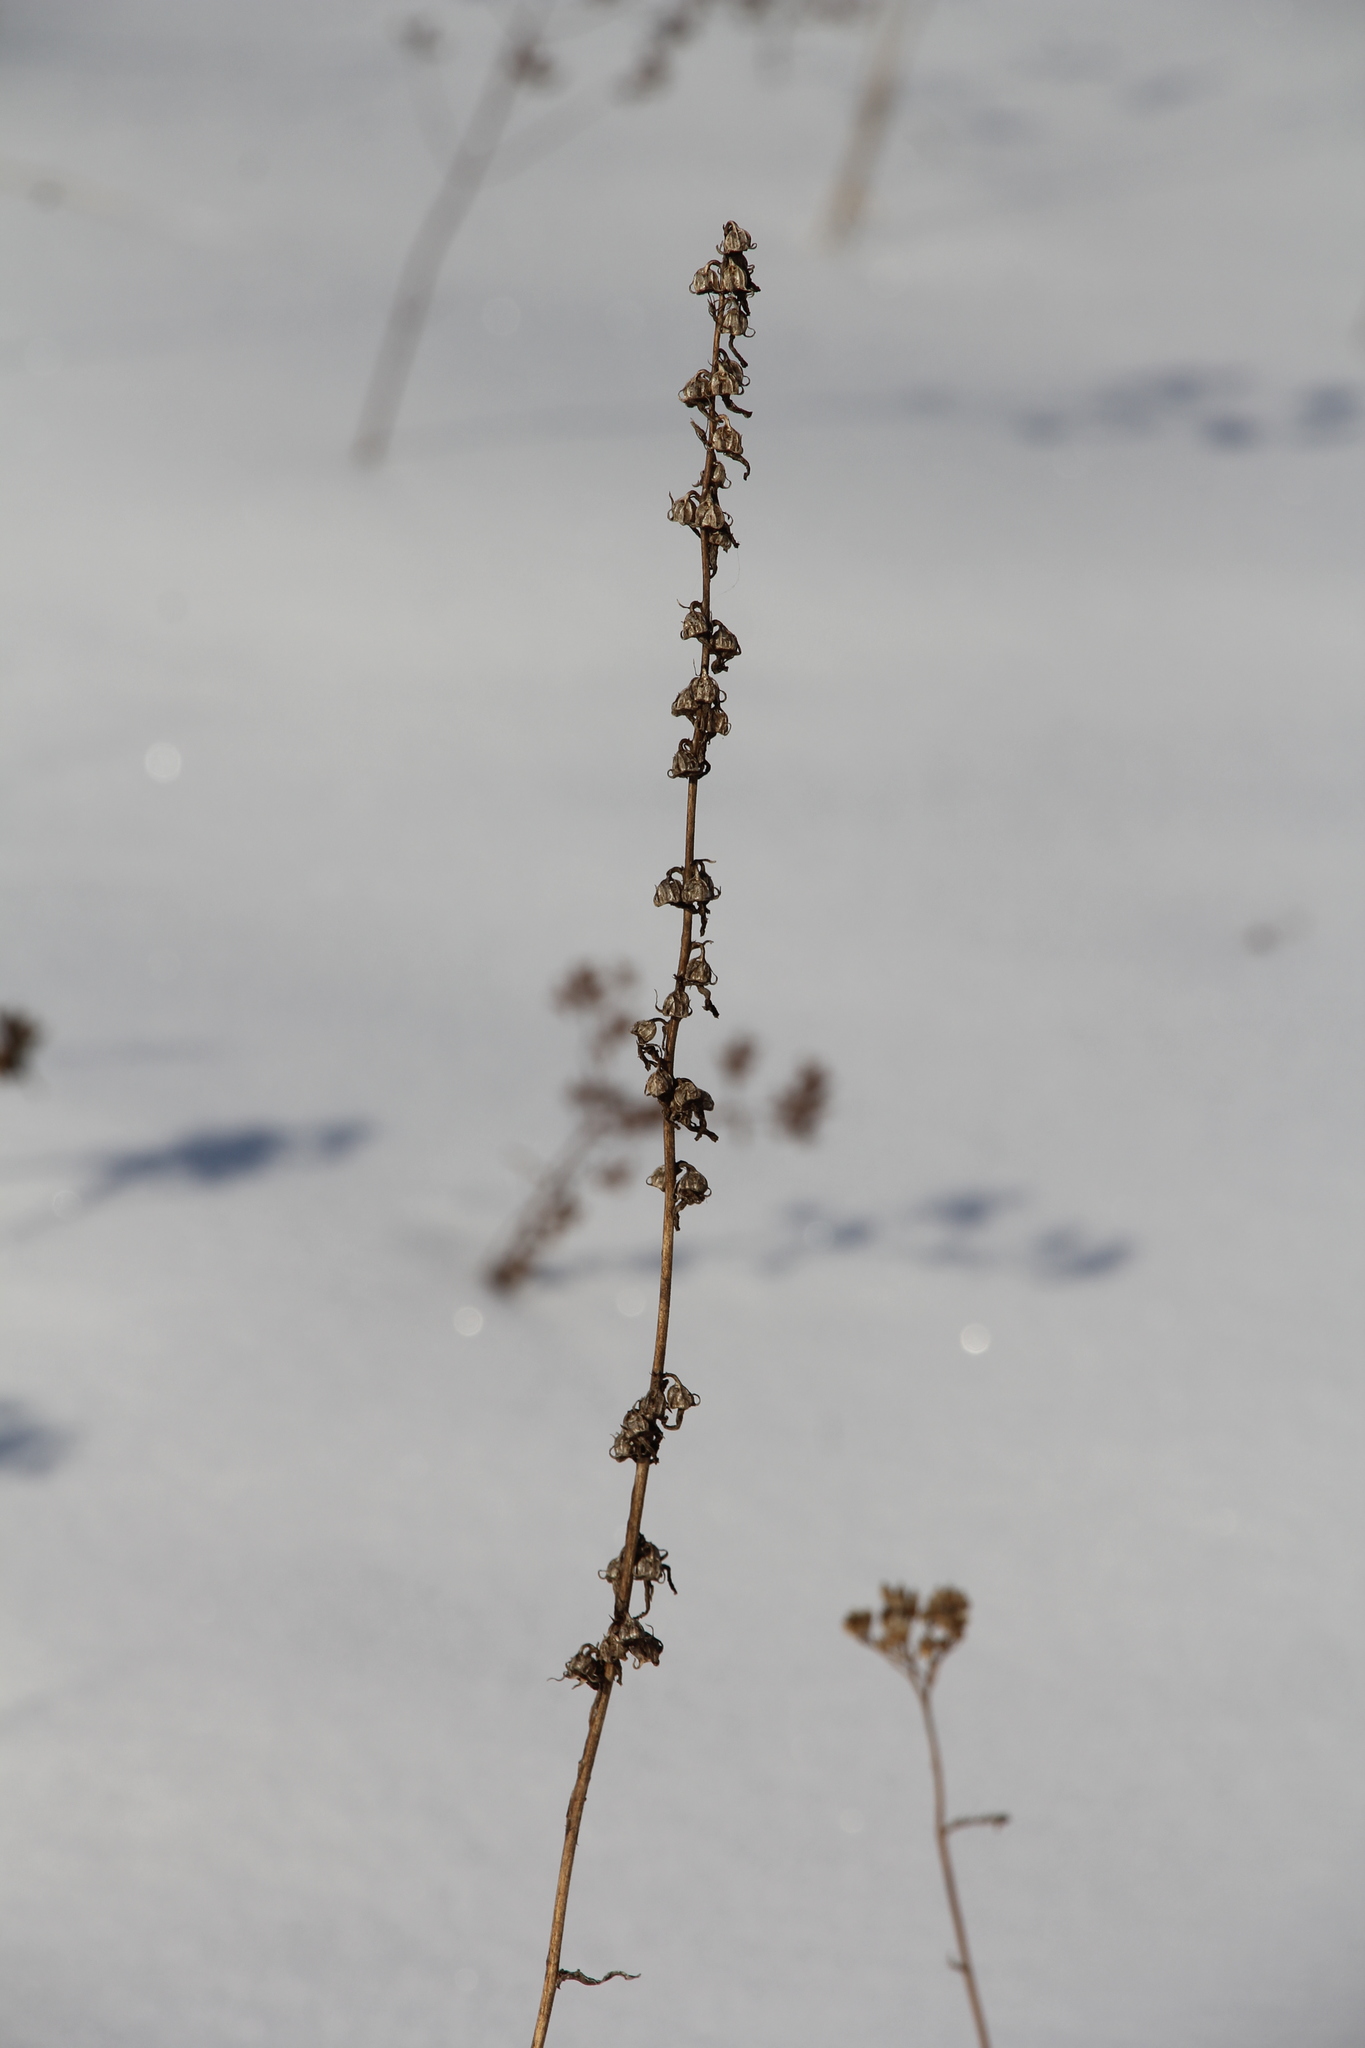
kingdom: Plantae
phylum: Tracheophyta
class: Magnoliopsida
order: Asterales
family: Campanulaceae
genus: Campanula
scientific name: Campanula bononiensis
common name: Pale bellflower
